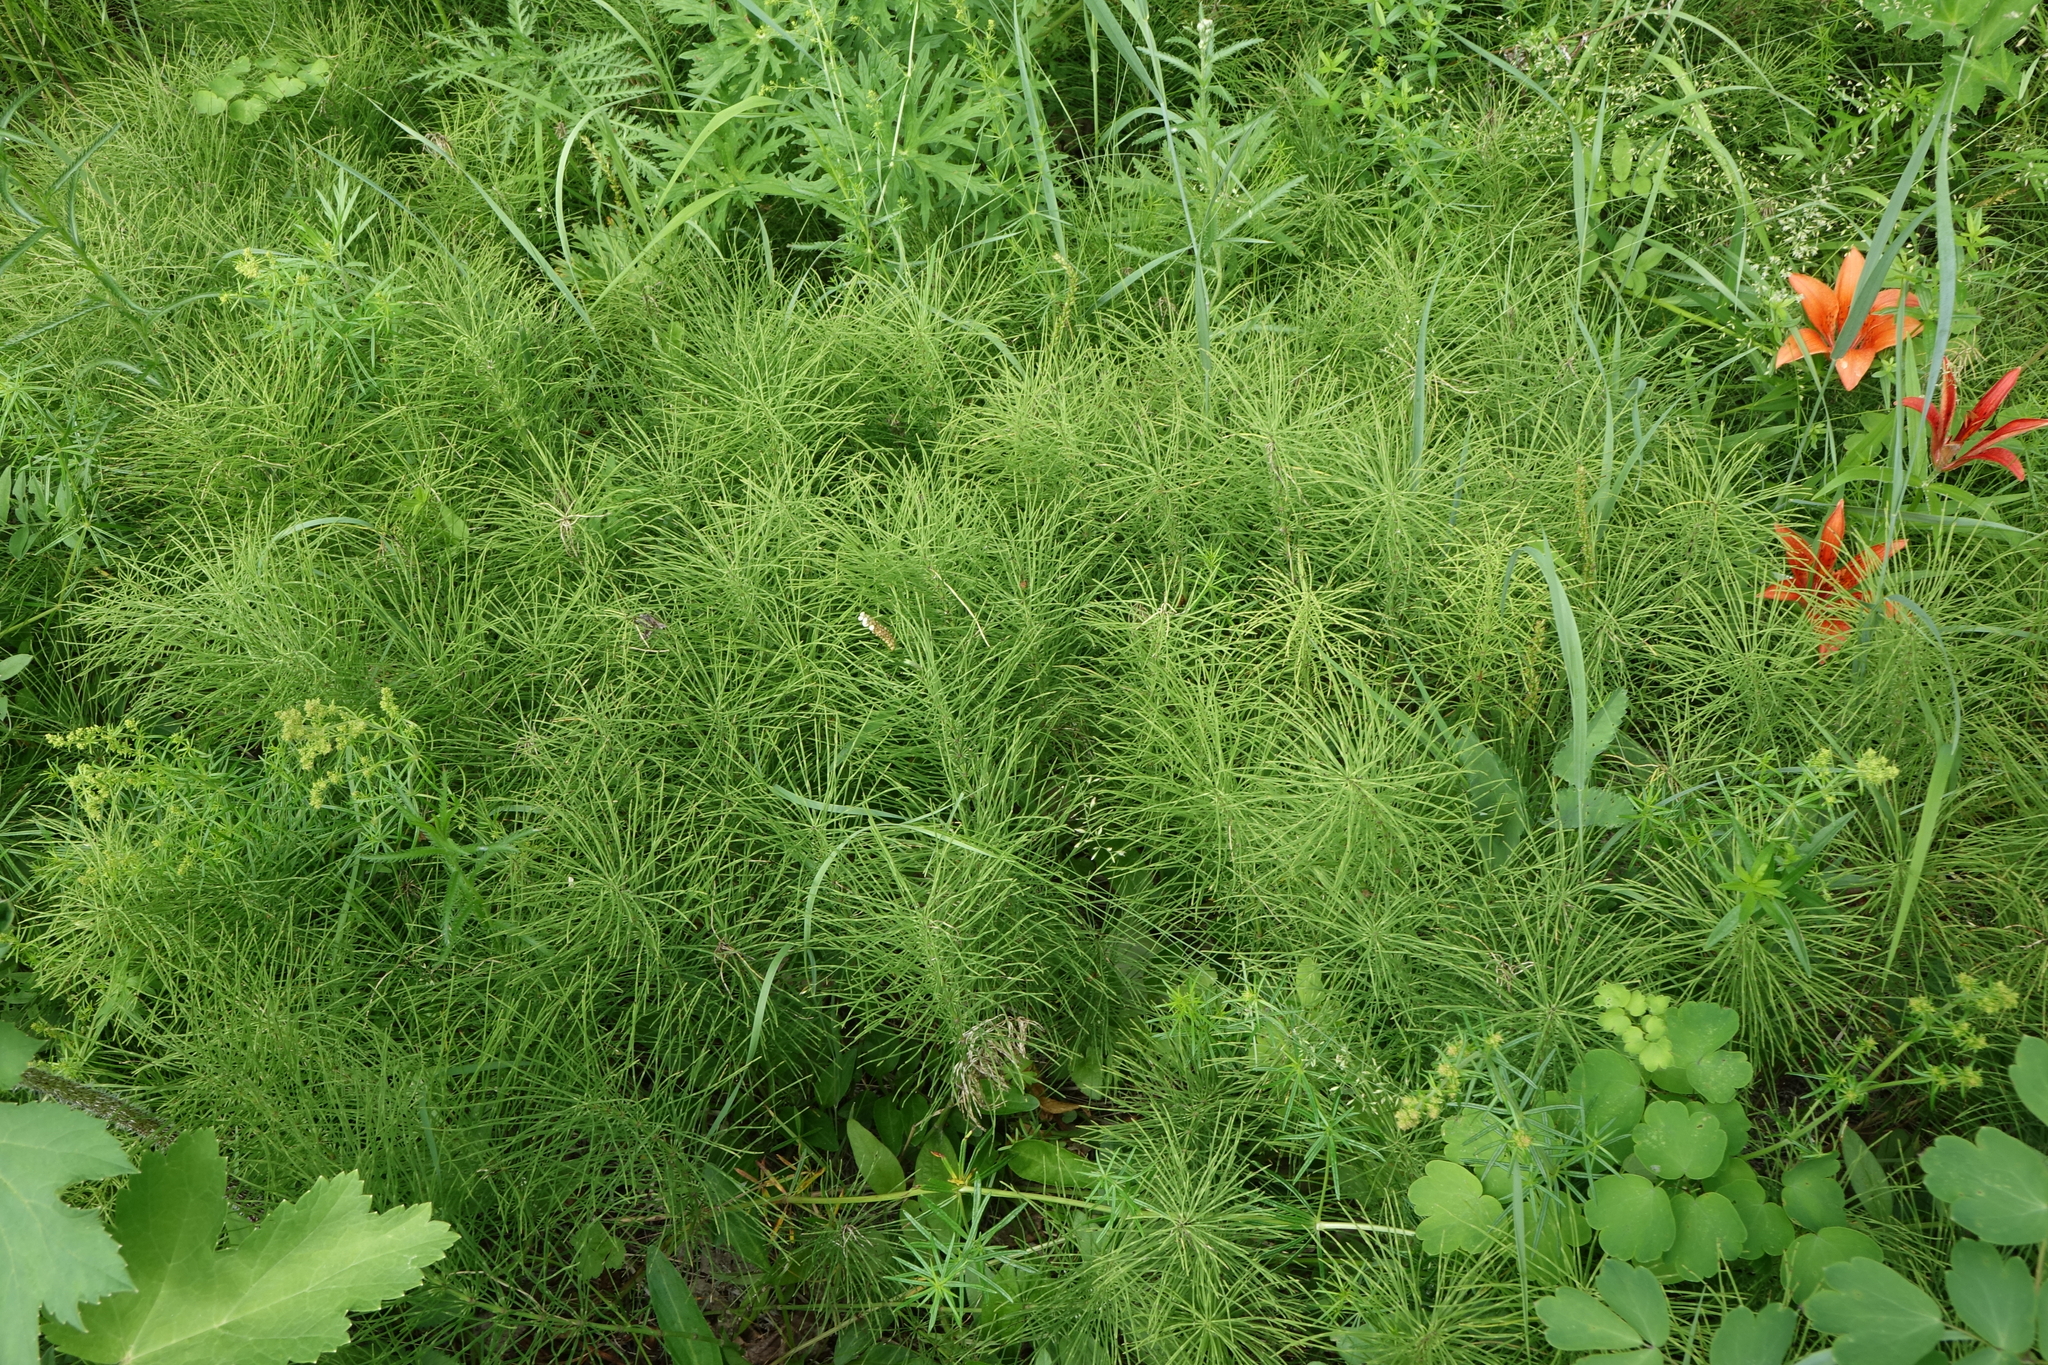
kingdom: Plantae
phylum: Tracheophyta
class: Polypodiopsida
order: Equisetales
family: Equisetaceae
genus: Equisetum
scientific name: Equisetum pratense
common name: Meadow horsetail
